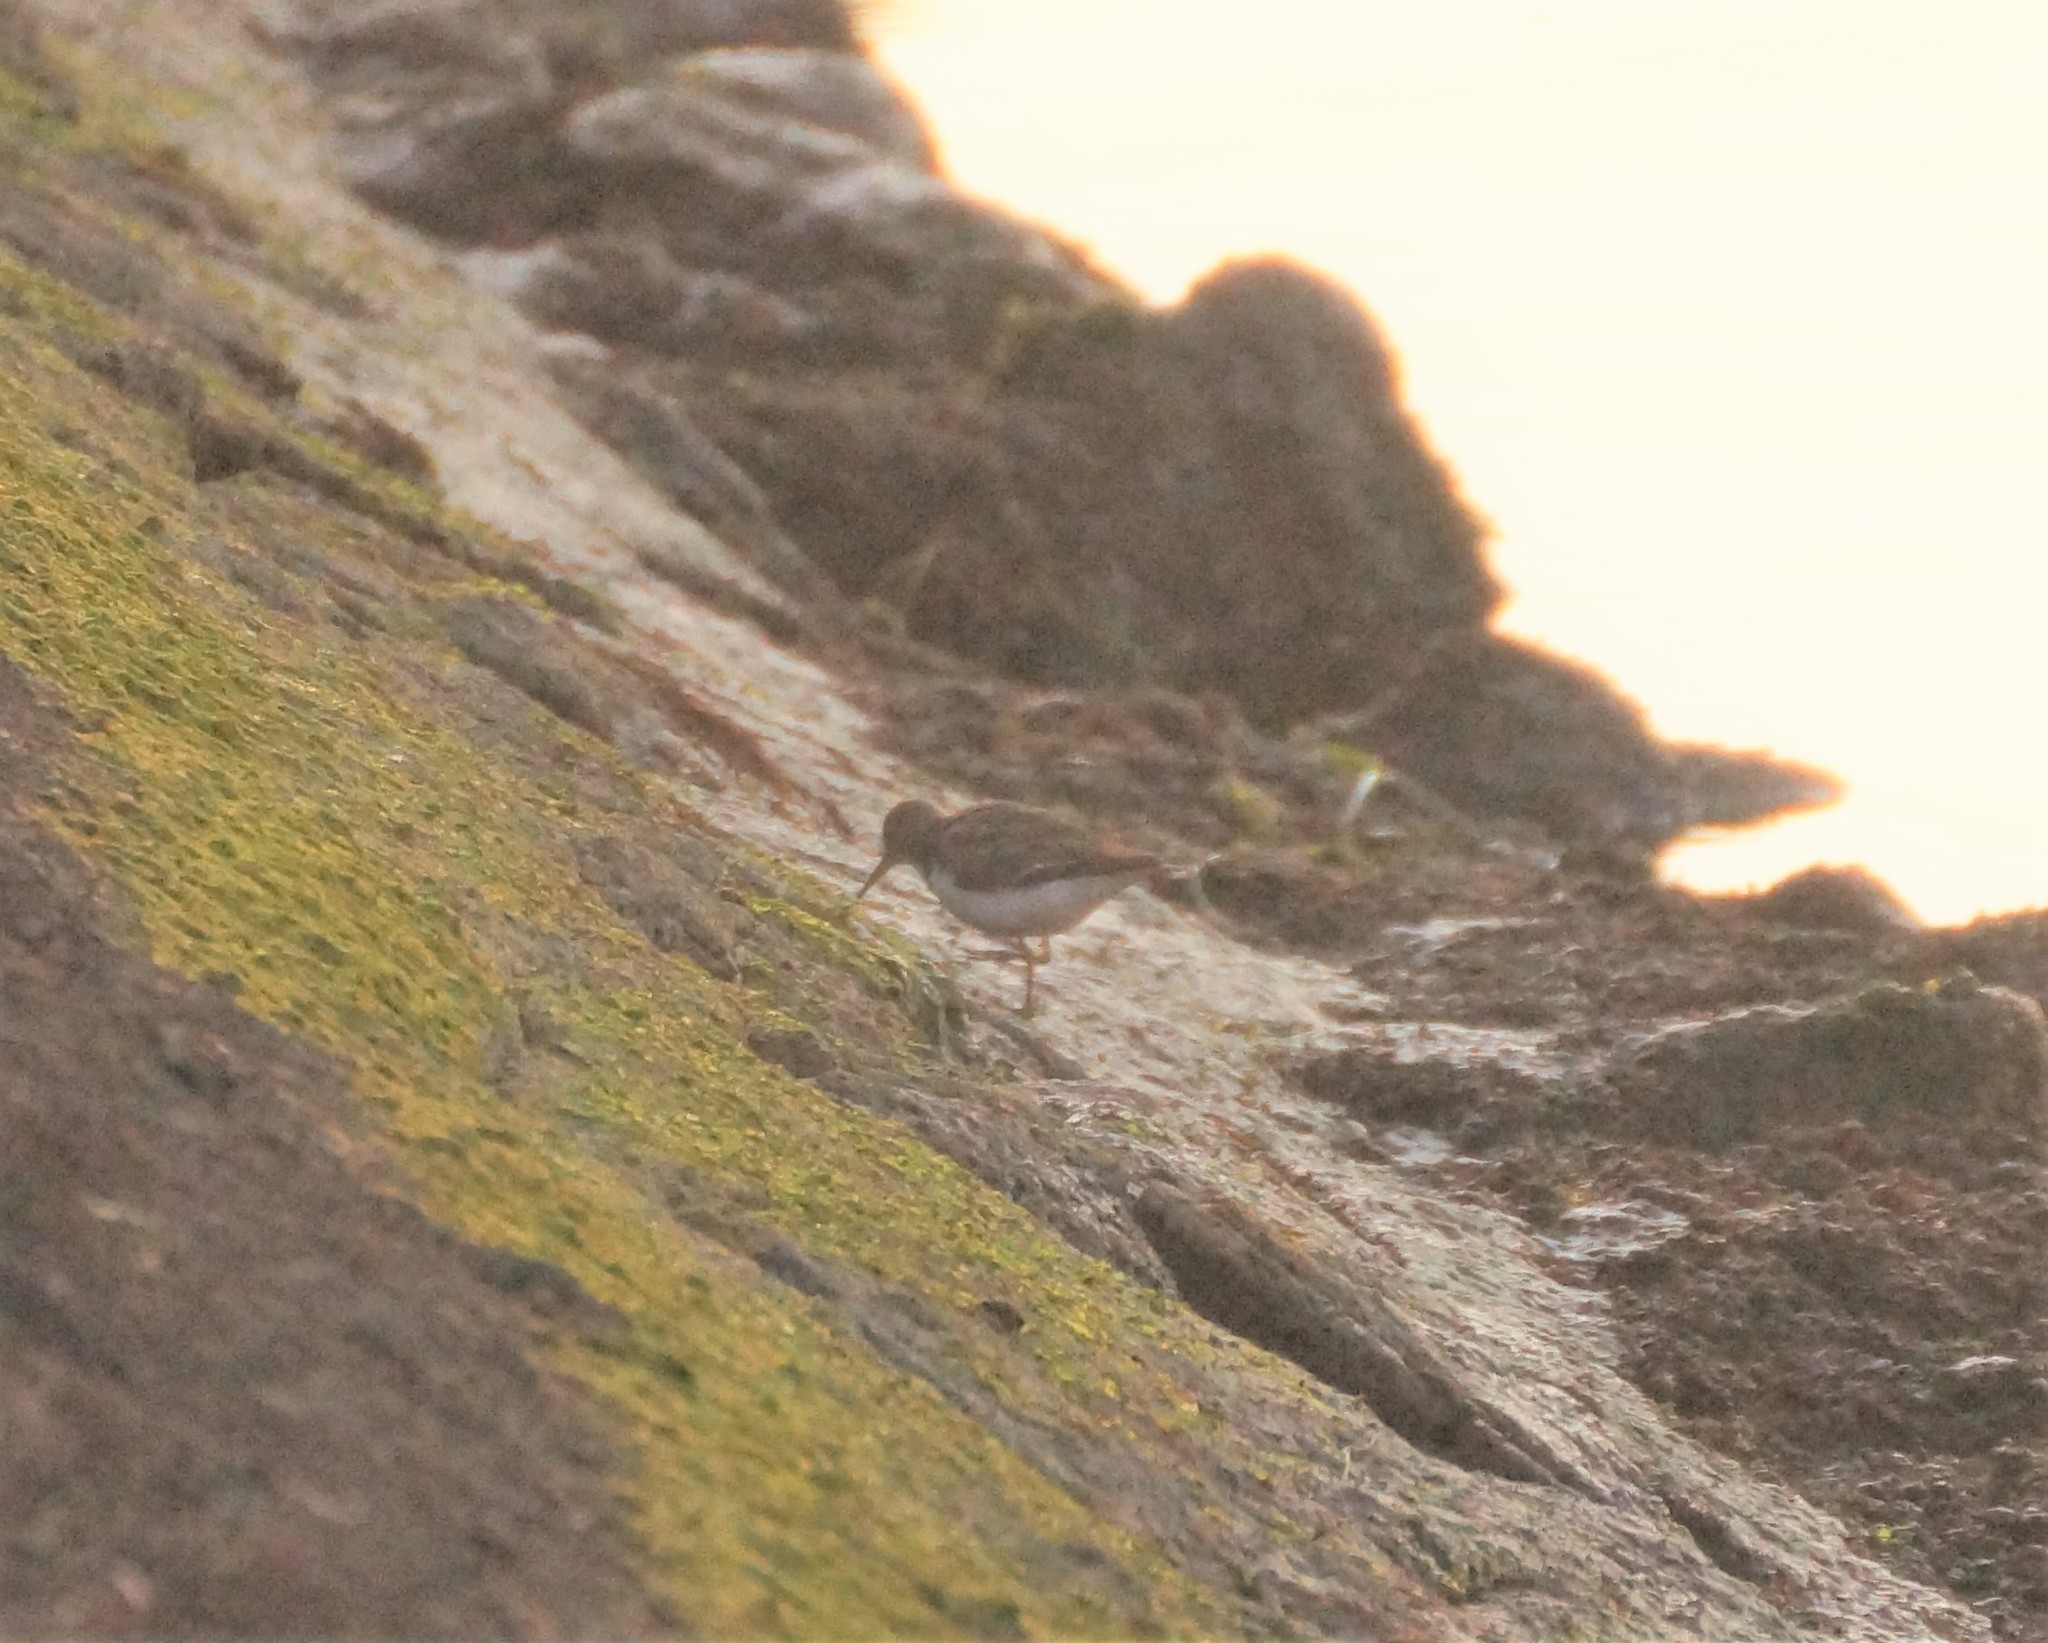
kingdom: Animalia
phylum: Chordata
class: Aves
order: Charadriiformes
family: Scolopacidae
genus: Actitis
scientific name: Actitis hypoleucos
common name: Common sandpiper
